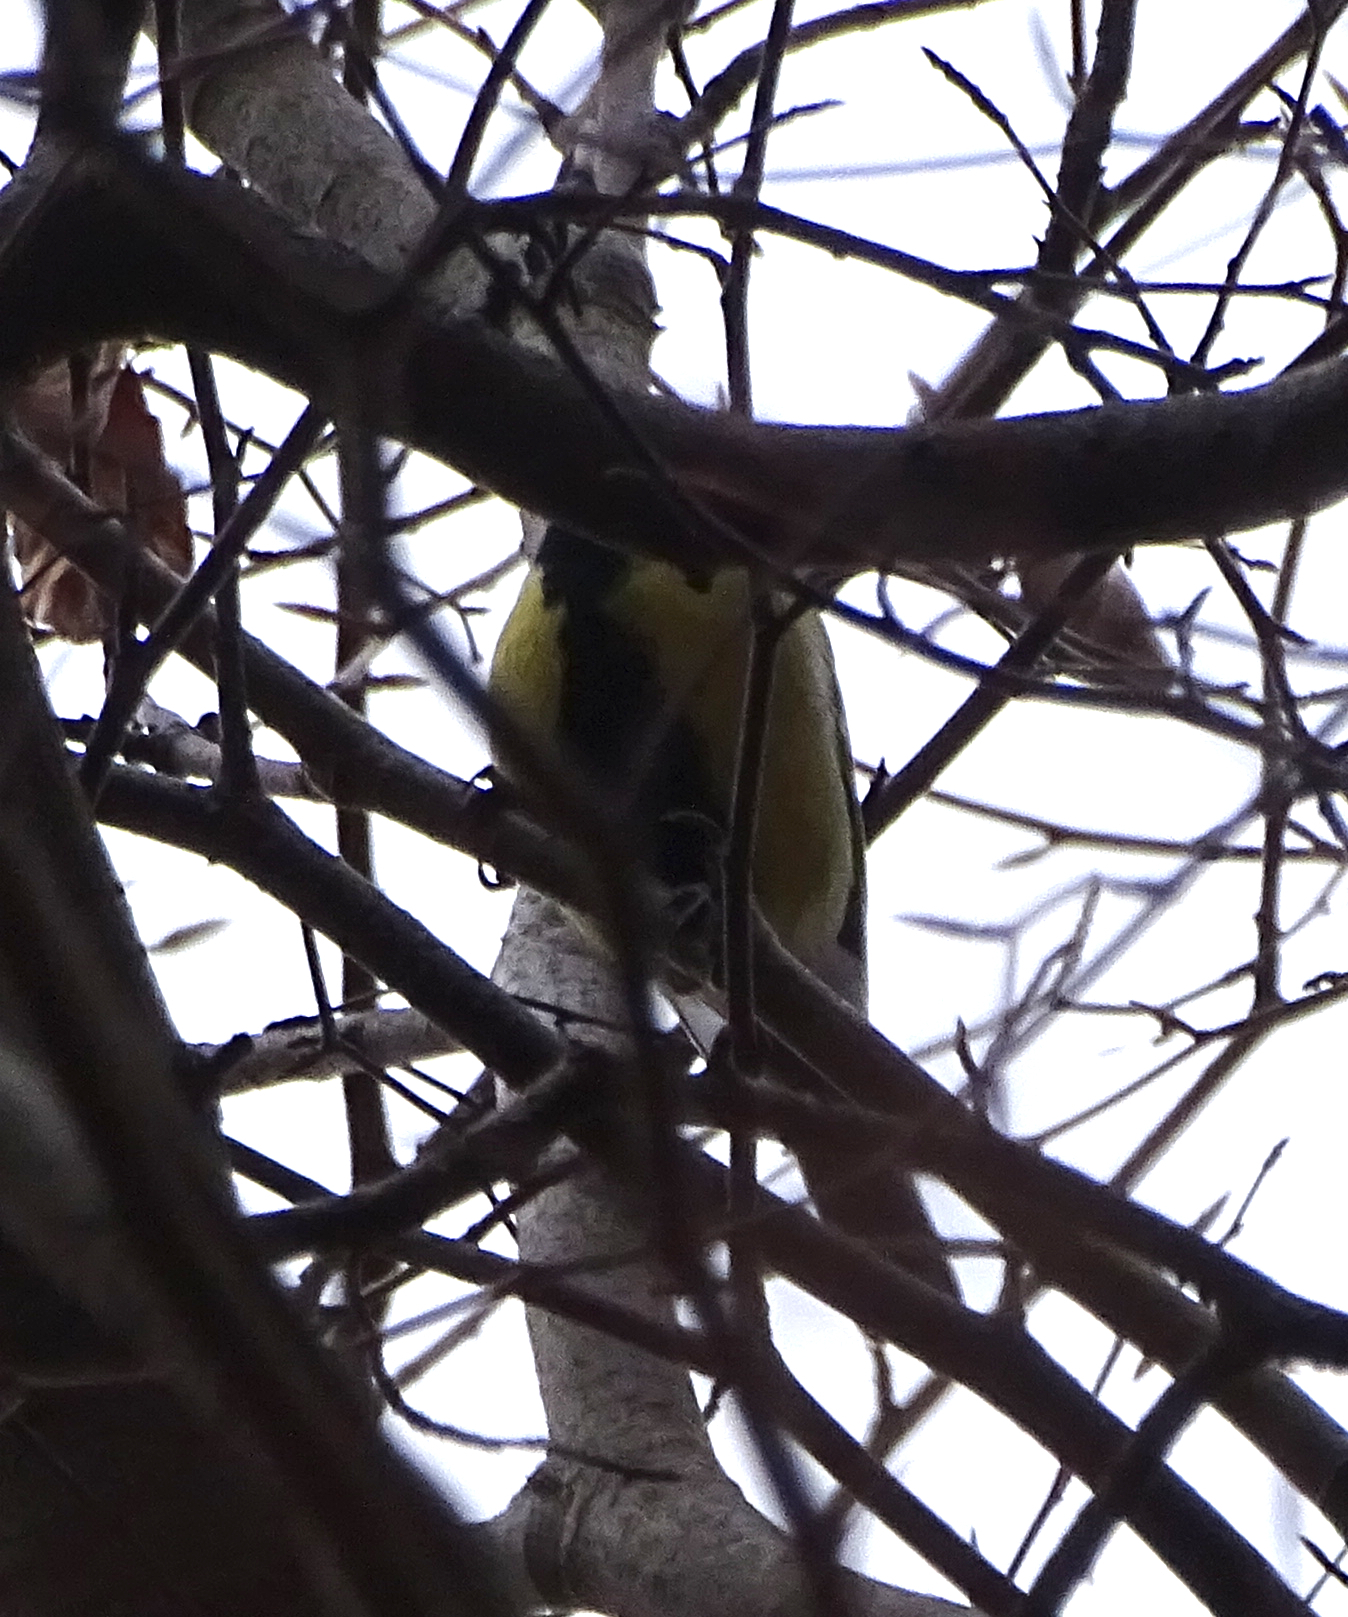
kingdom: Animalia
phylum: Chordata
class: Aves
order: Passeriformes
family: Paridae
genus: Parus
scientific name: Parus major
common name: Great tit
